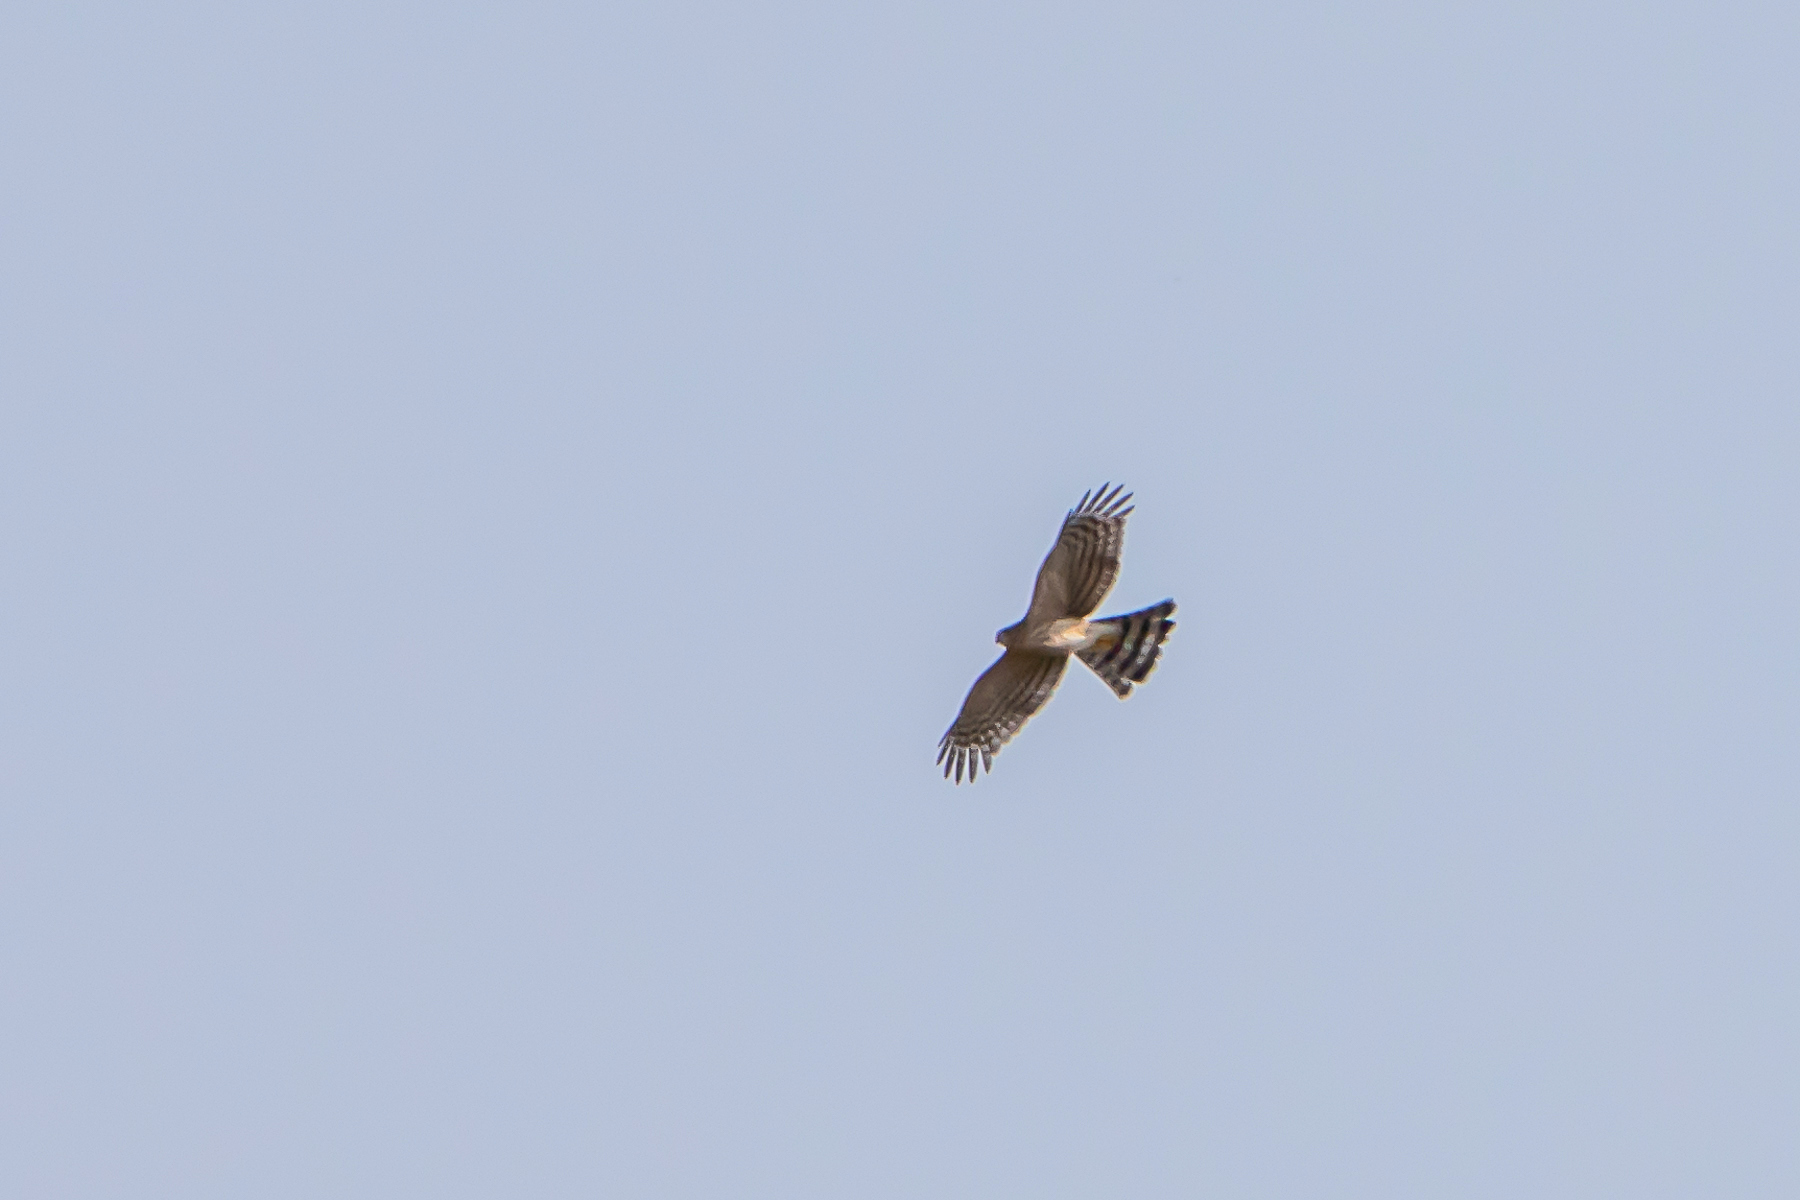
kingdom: Animalia
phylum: Chordata
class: Aves
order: Accipitriformes
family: Accipitridae
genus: Accipiter
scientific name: Accipiter striatus
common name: Sharp-shinned hawk
